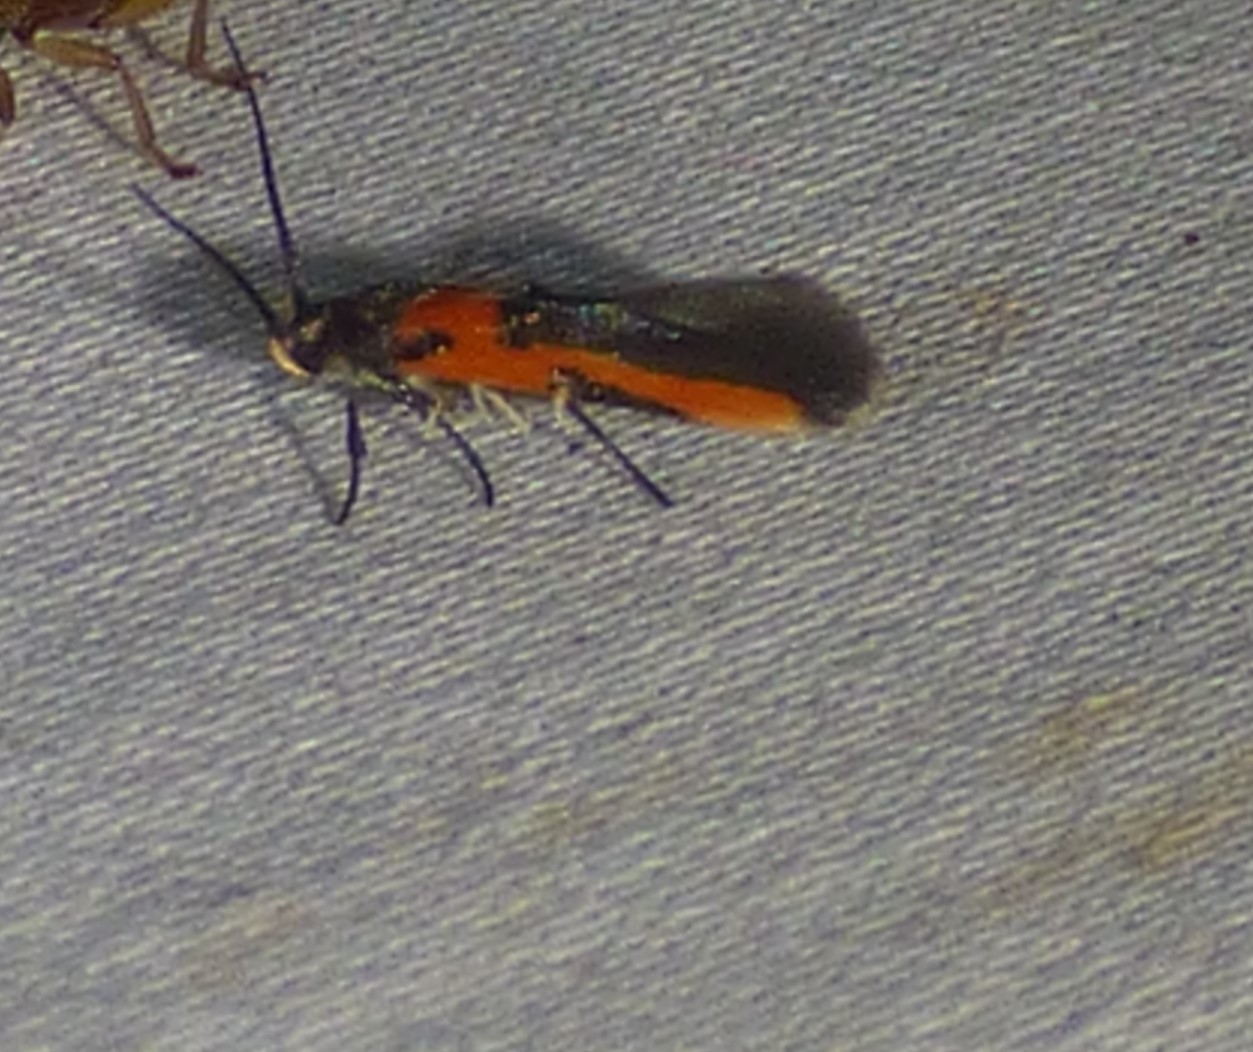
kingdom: Animalia
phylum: Arthropoda
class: Insecta
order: Lepidoptera
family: Cosmopterigidae
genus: Euclemensia
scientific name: Euclemensia bassettella
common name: Kermes scale moth
